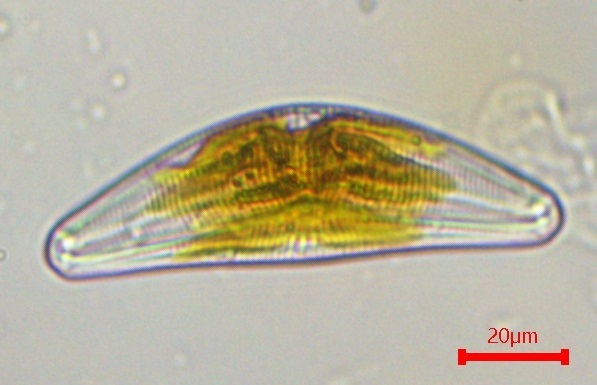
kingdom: Chromista
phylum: Ochrophyta
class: Bacillariophyceae
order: Cymbellales
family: Cymbellaceae
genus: Cymbella
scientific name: Cymbella mesiana
